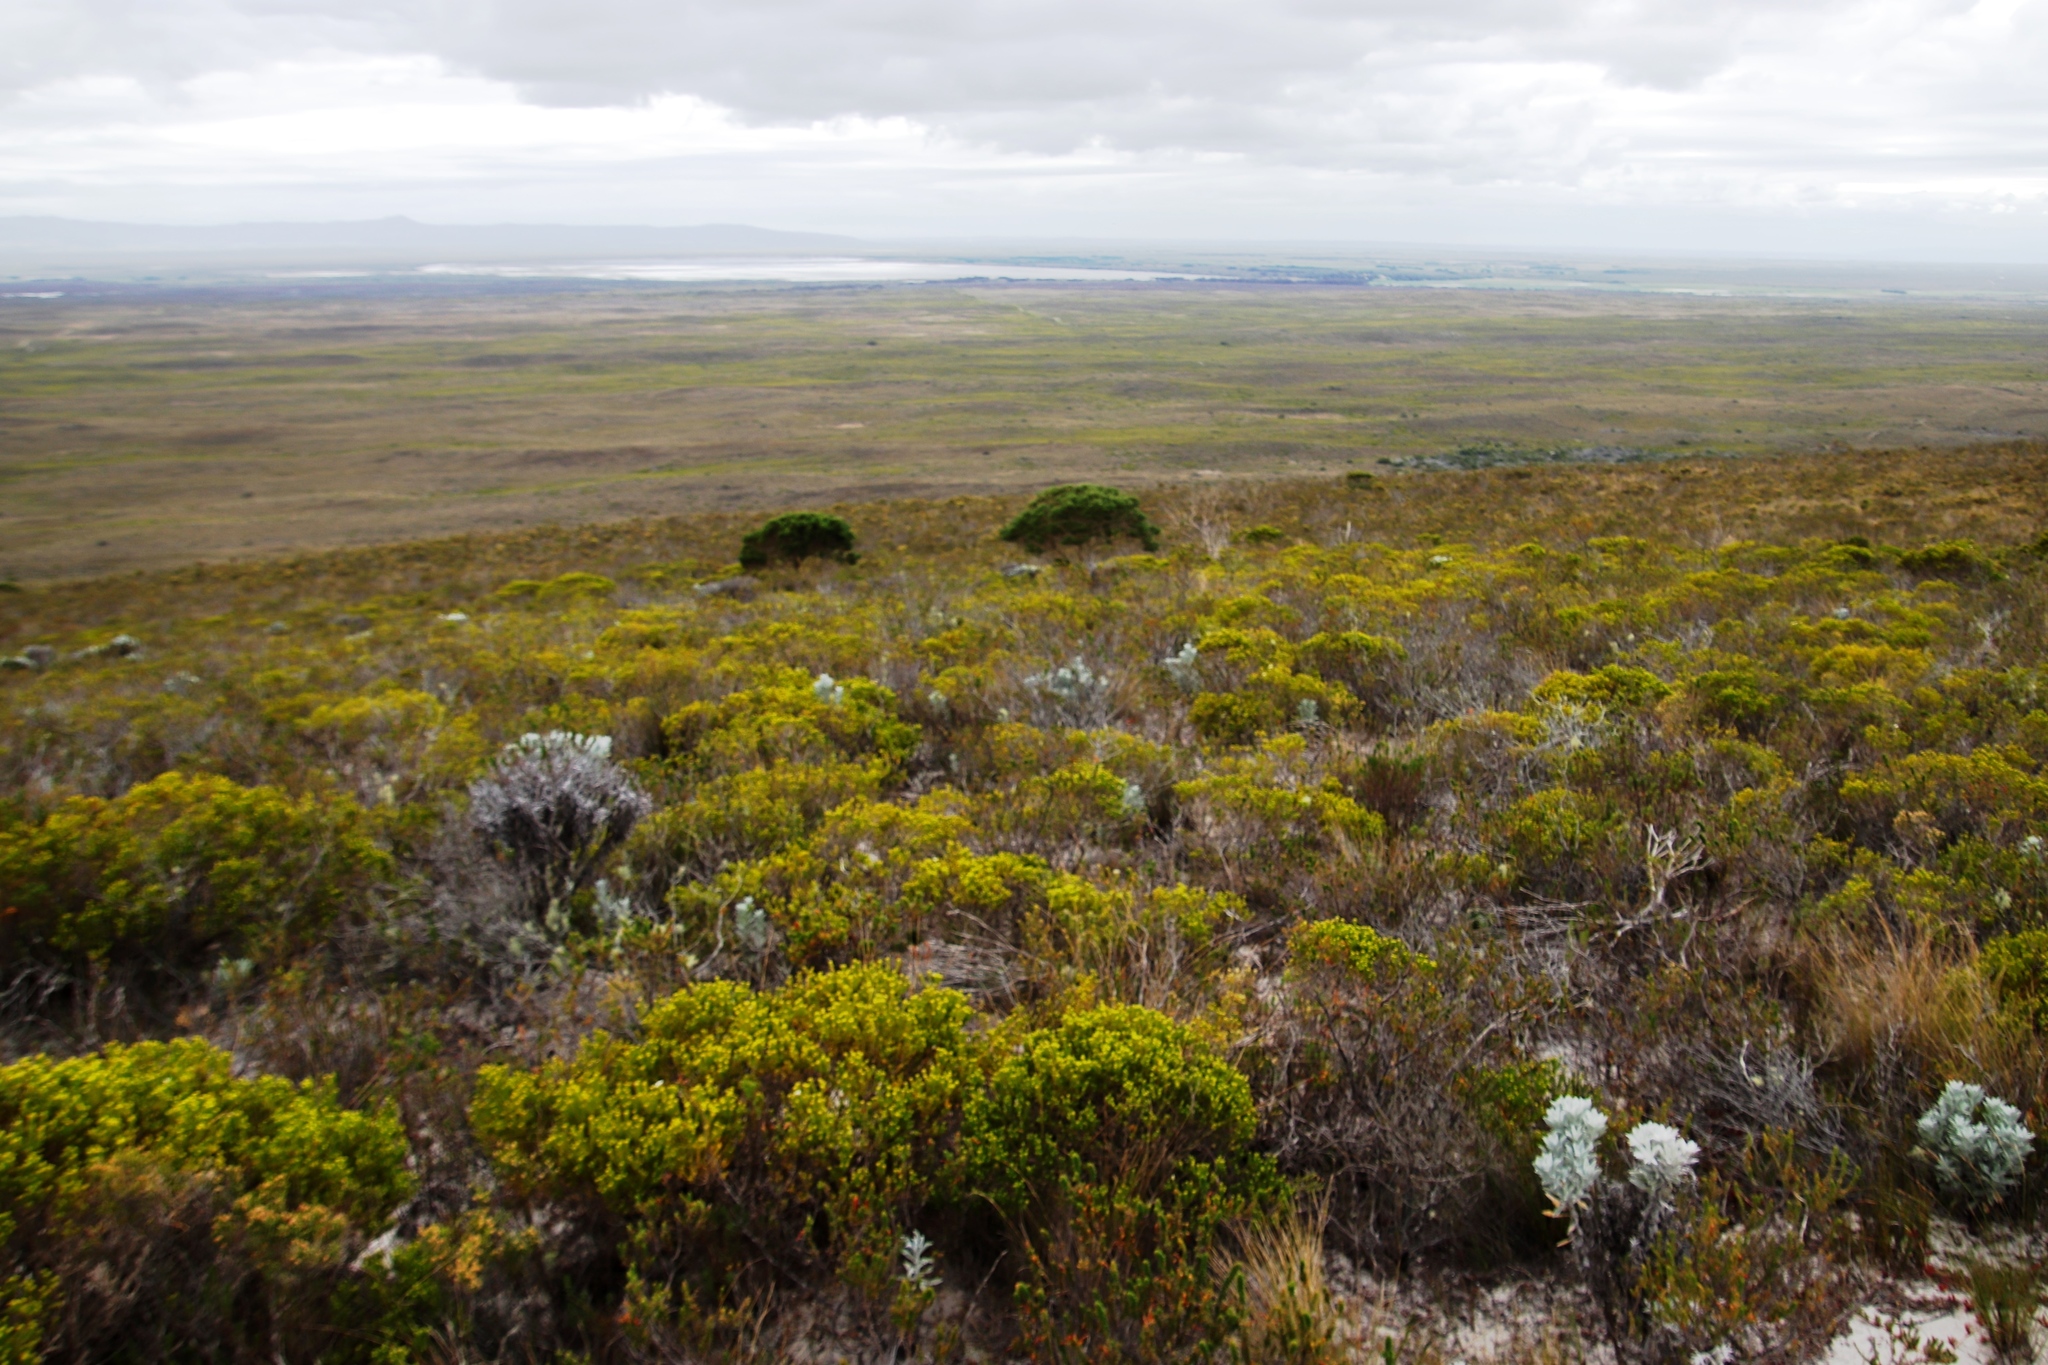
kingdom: Plantae
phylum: Tracheophyta
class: Magnoliopsida
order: Fabales
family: Fabaceae
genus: Aspalathus
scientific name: Aspalathus forbesii
